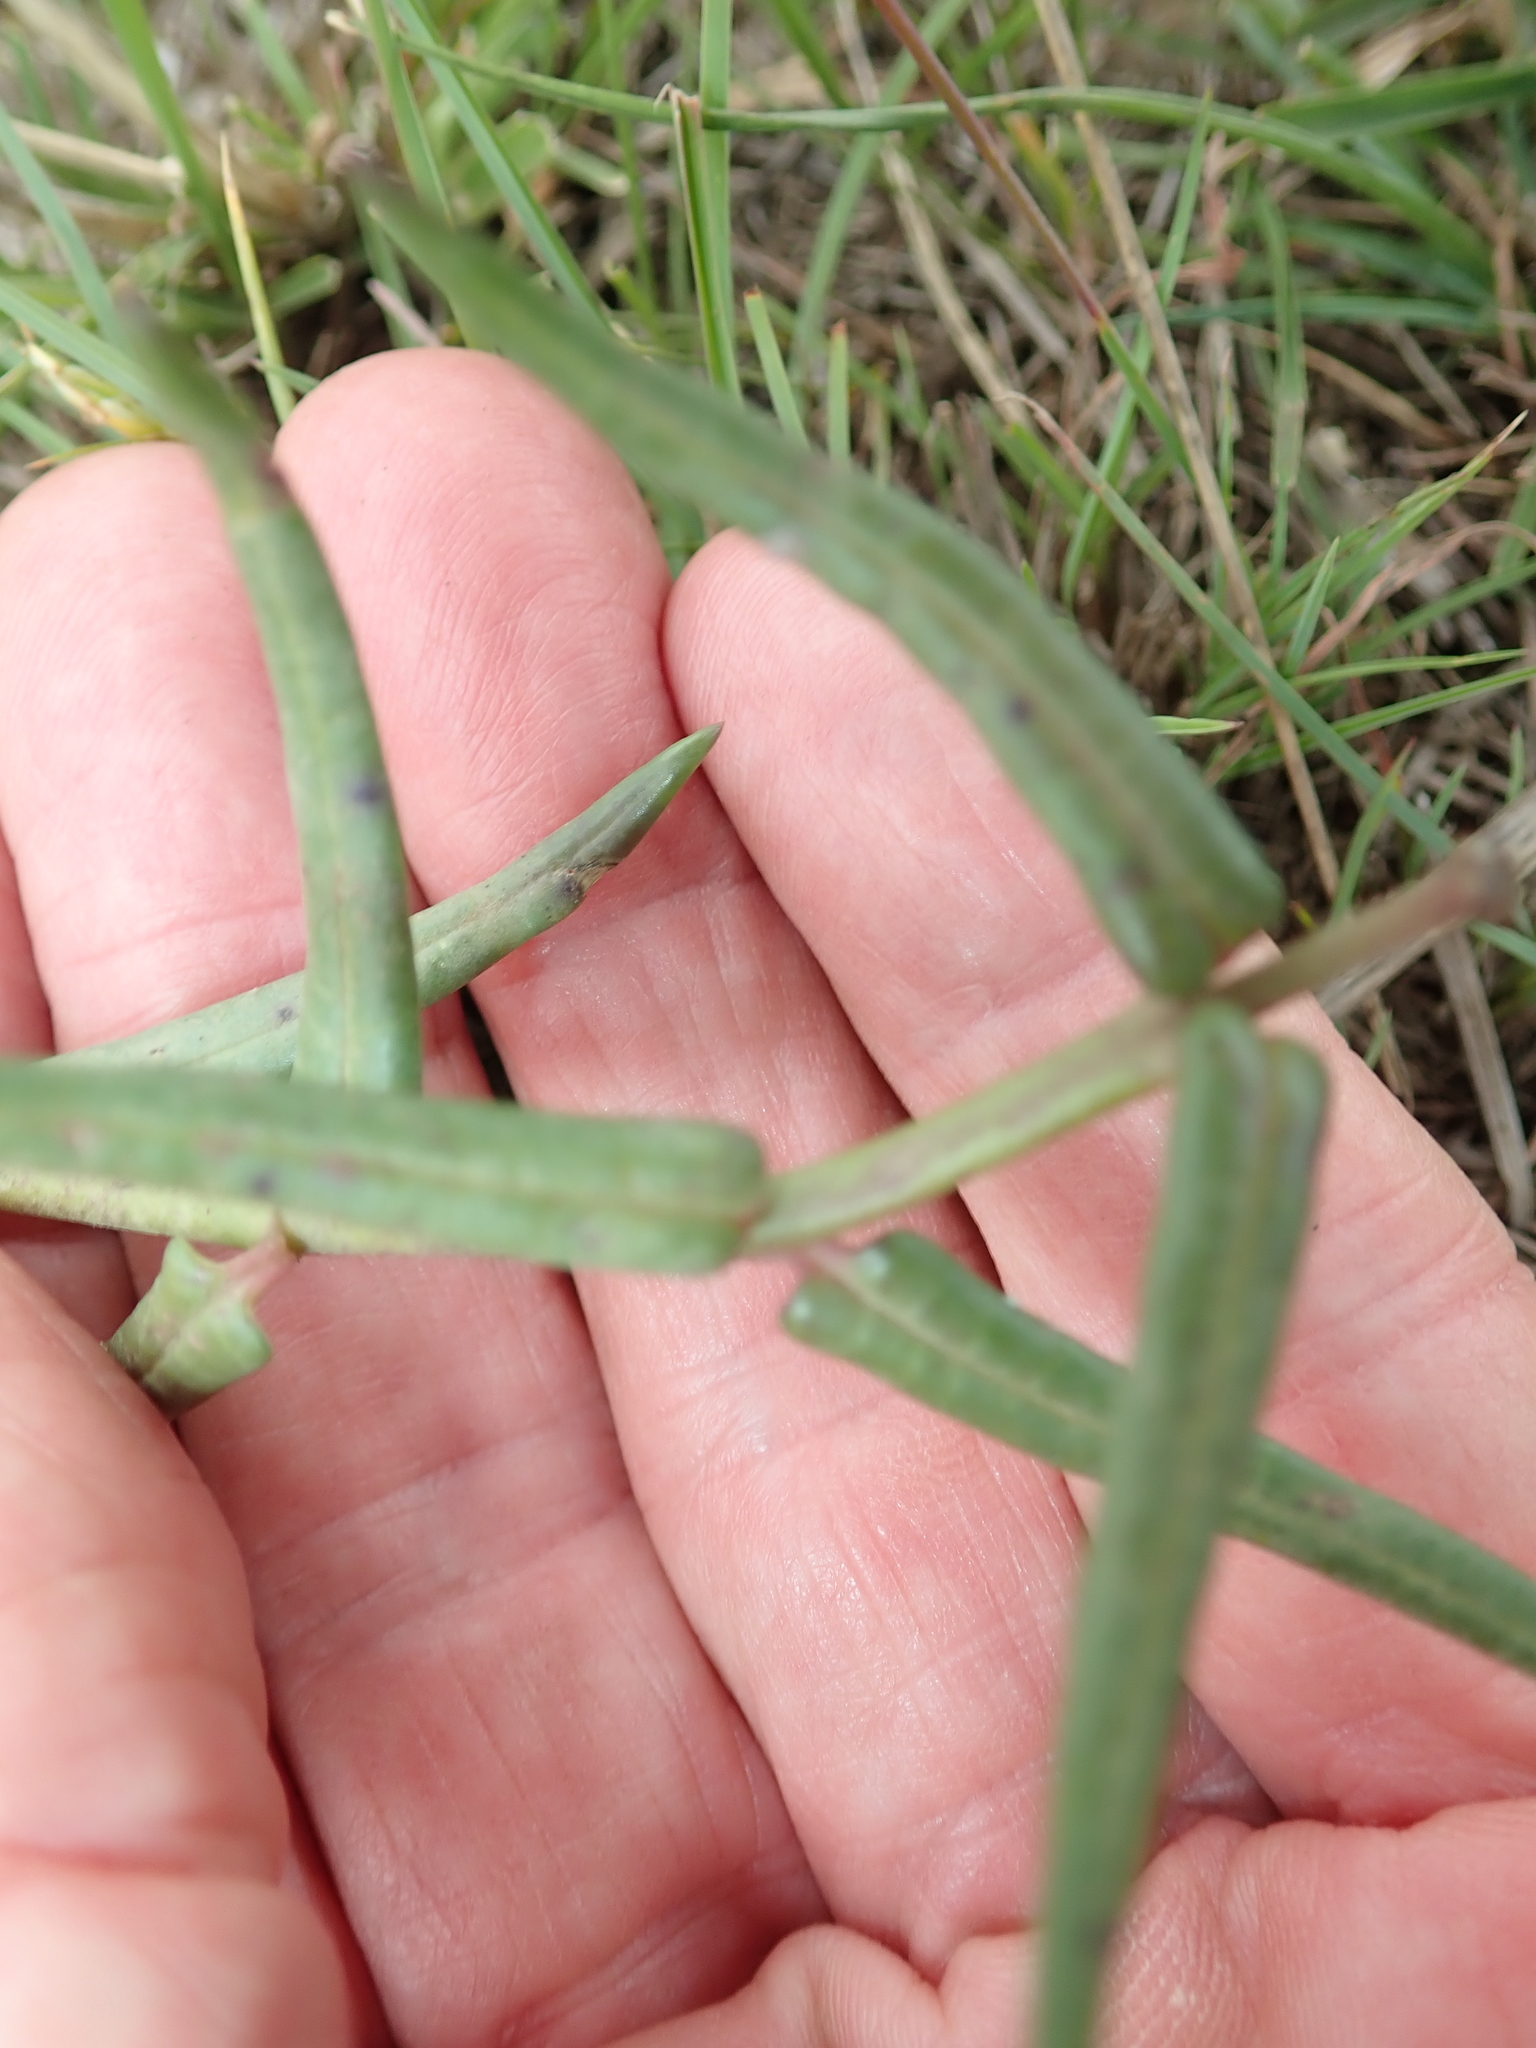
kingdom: Plantae
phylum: Tracheophyta
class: Magnoliopsida
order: Gentianales
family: Apocynaceae
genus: Asclepias
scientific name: Asclepias flexuosa
